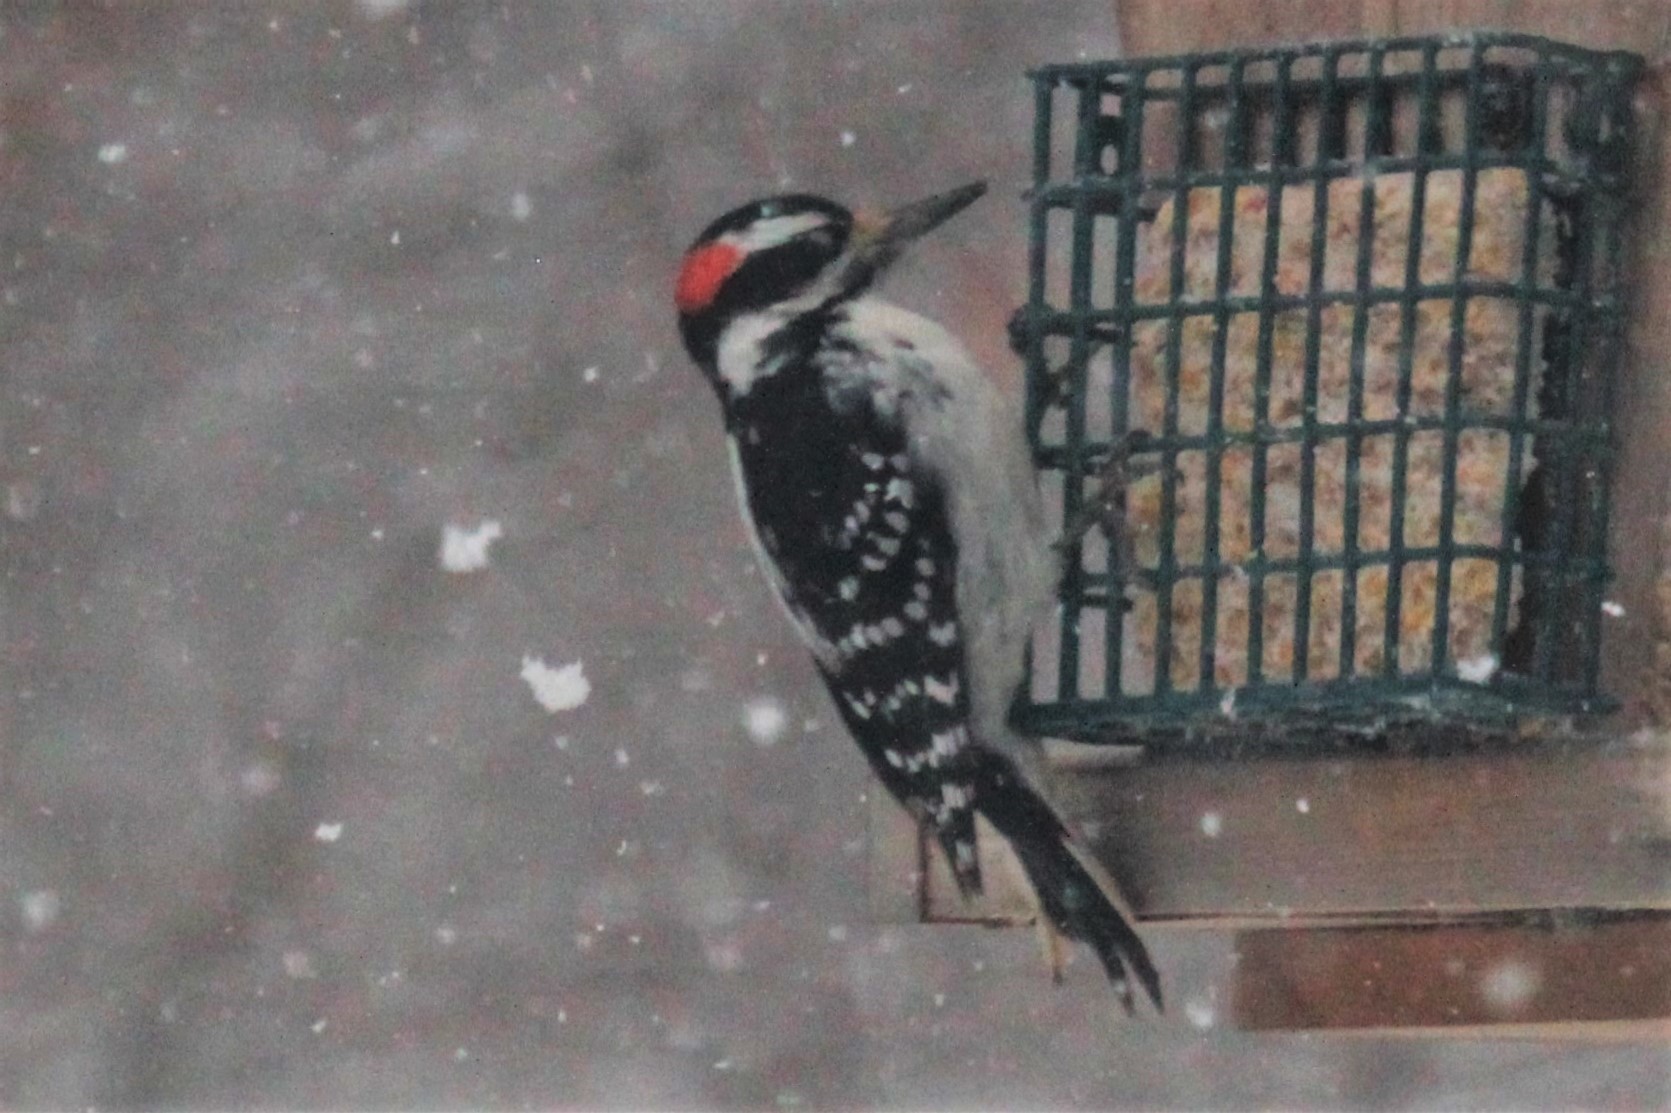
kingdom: Animalia
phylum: Chordata
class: Aves
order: Piciformes
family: Picidae
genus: Leuconotopicus
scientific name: Leuconotopicus villosus
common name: Hairy woodpecker
